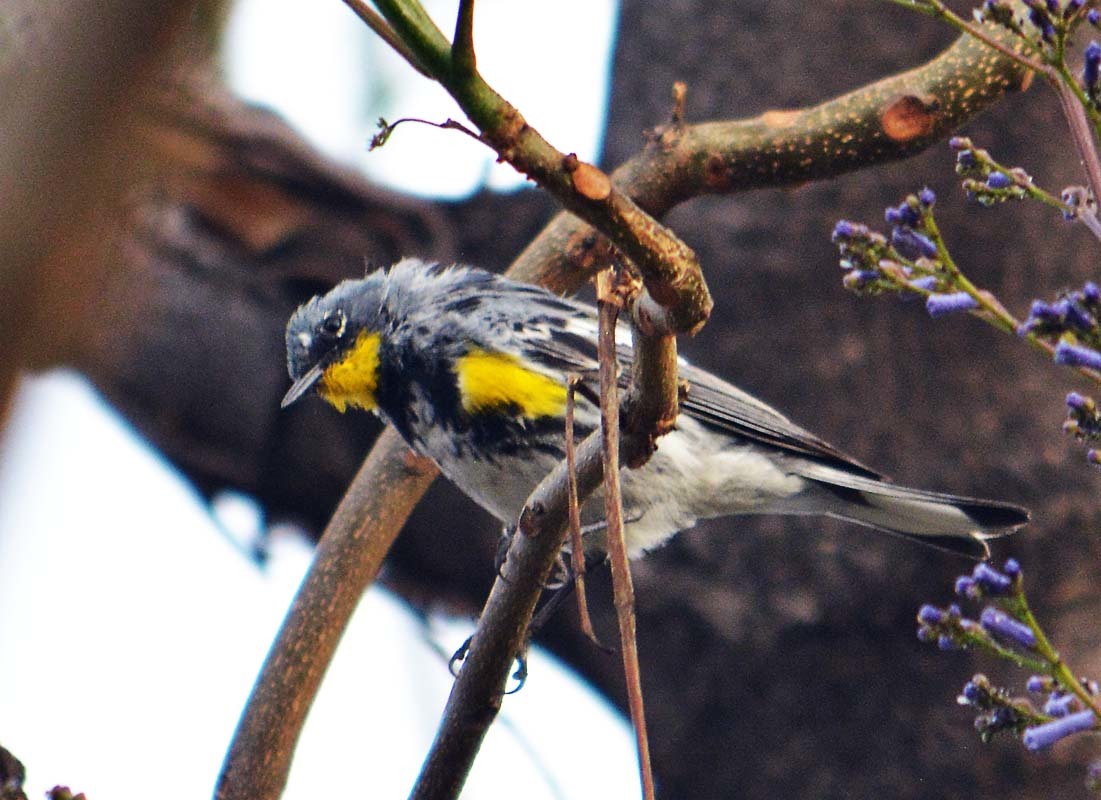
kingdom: Animalia
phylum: Chordata
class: Aves
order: Passeriformes
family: Parulidae
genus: Setophaga
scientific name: Setophaga auduboni
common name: Audubon's warbler
